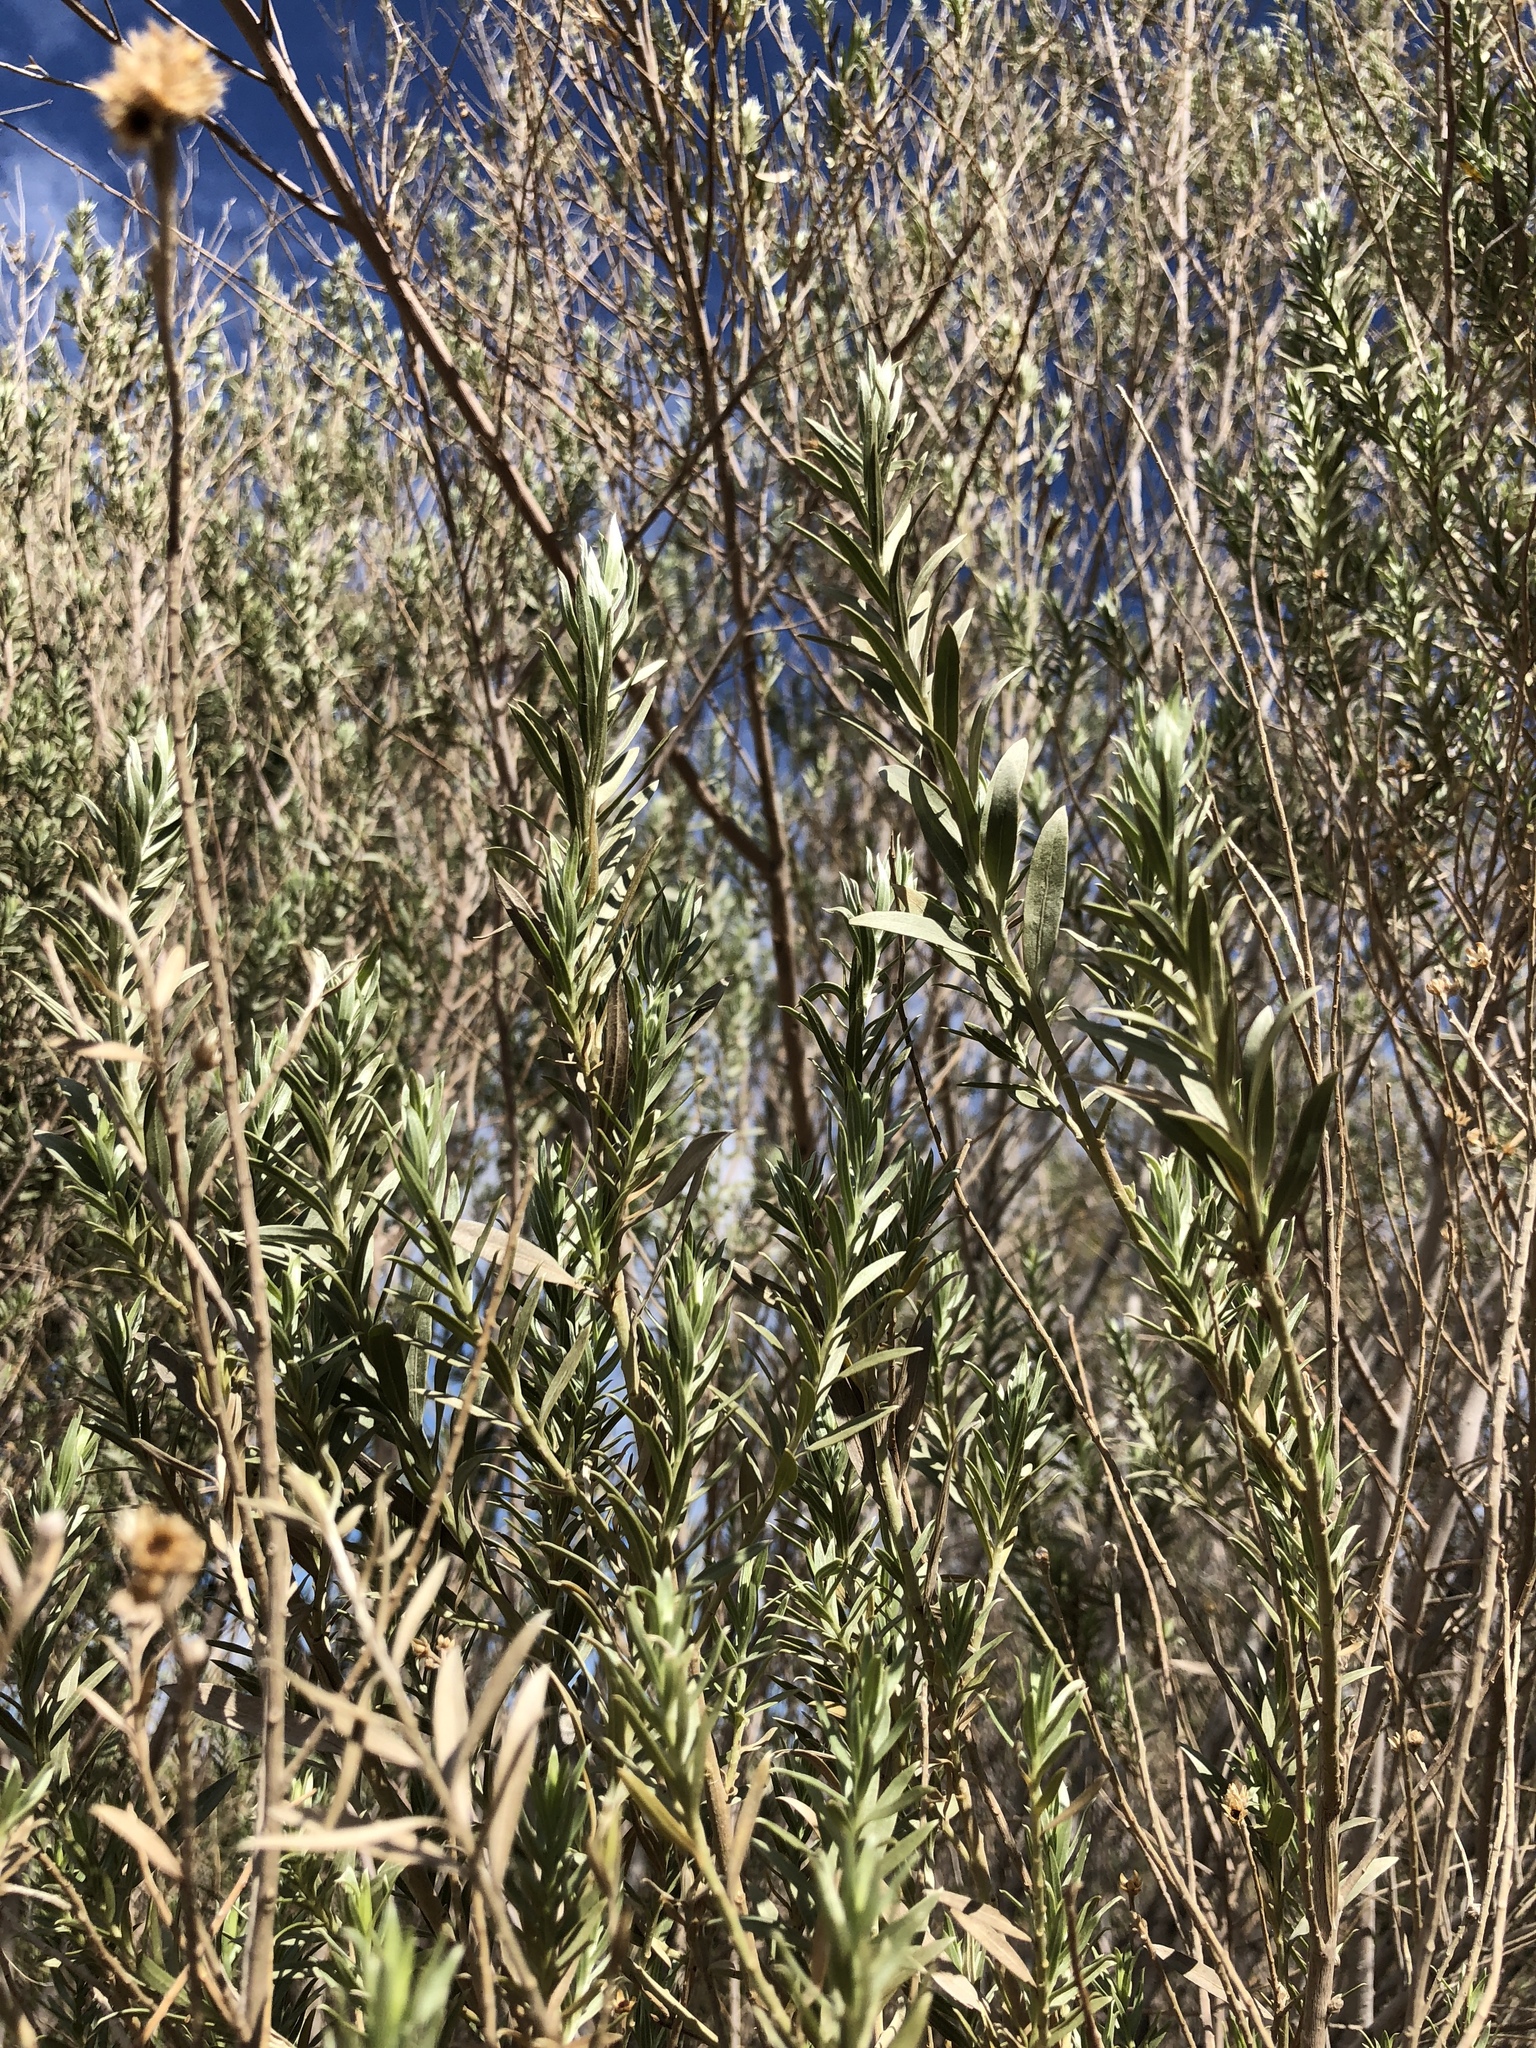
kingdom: Plantae
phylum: Tracheophyta
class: Magnoliopsida
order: Asterales
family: Asteraceae
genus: Pluchea
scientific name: Pluchea sericea
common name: Arrow-weed
